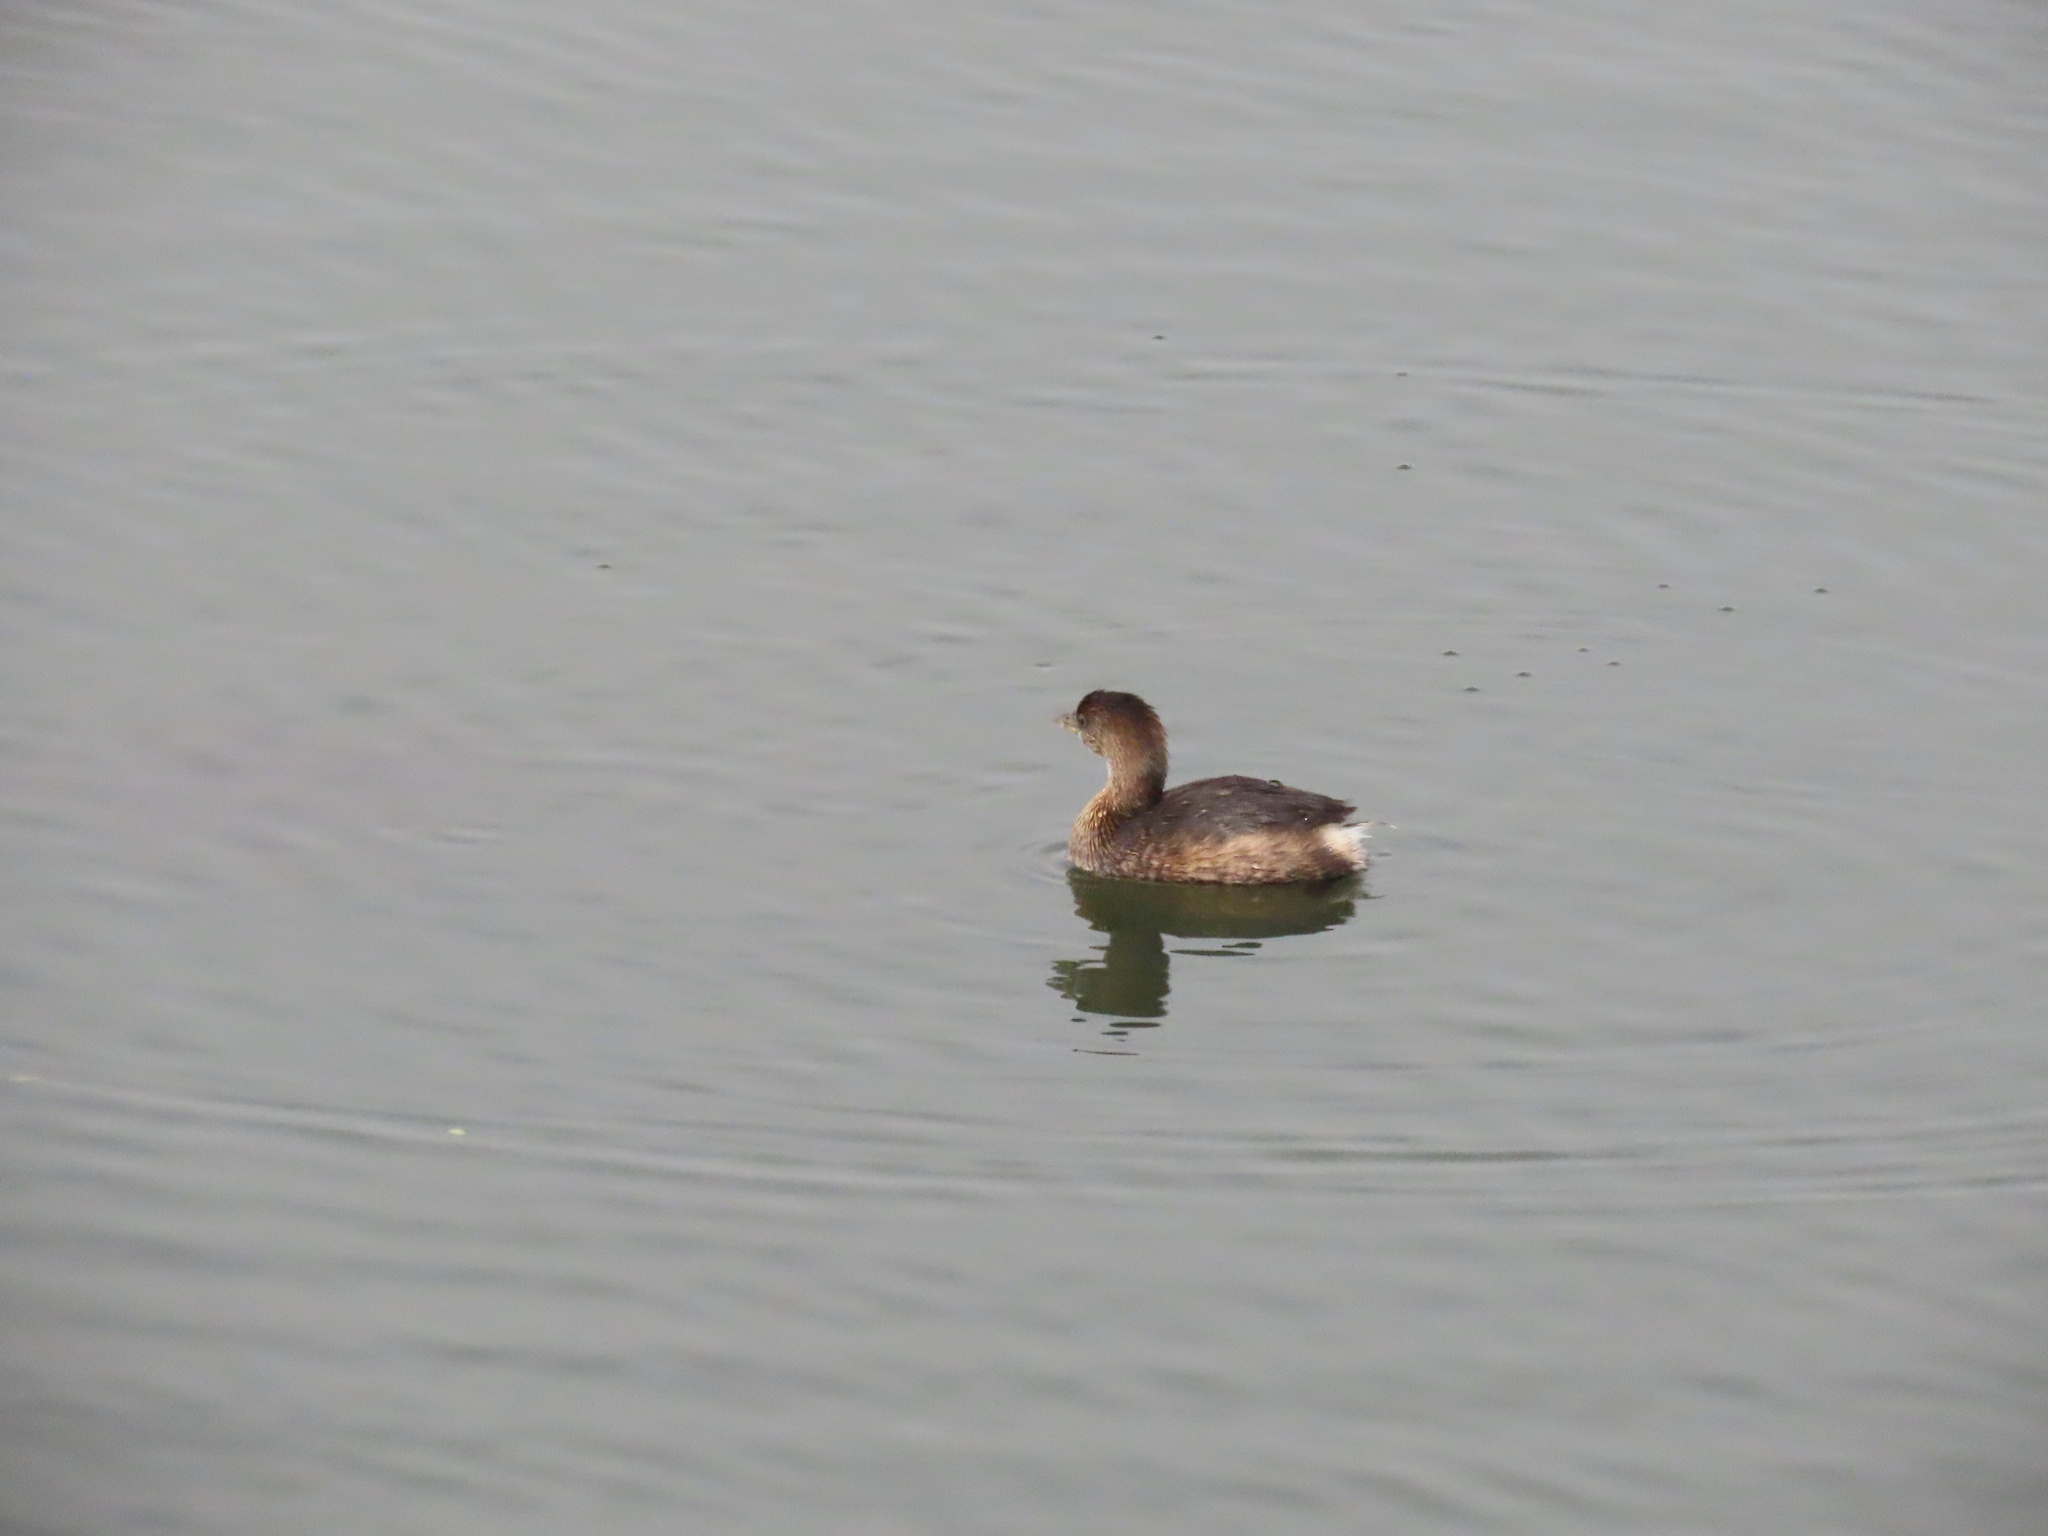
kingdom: Animalia
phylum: Chordata
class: Aves
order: Podicipediformes
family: Podicipedidae
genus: Podilymbus
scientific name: Podilymbus podiceps
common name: Pied-billed grebe
